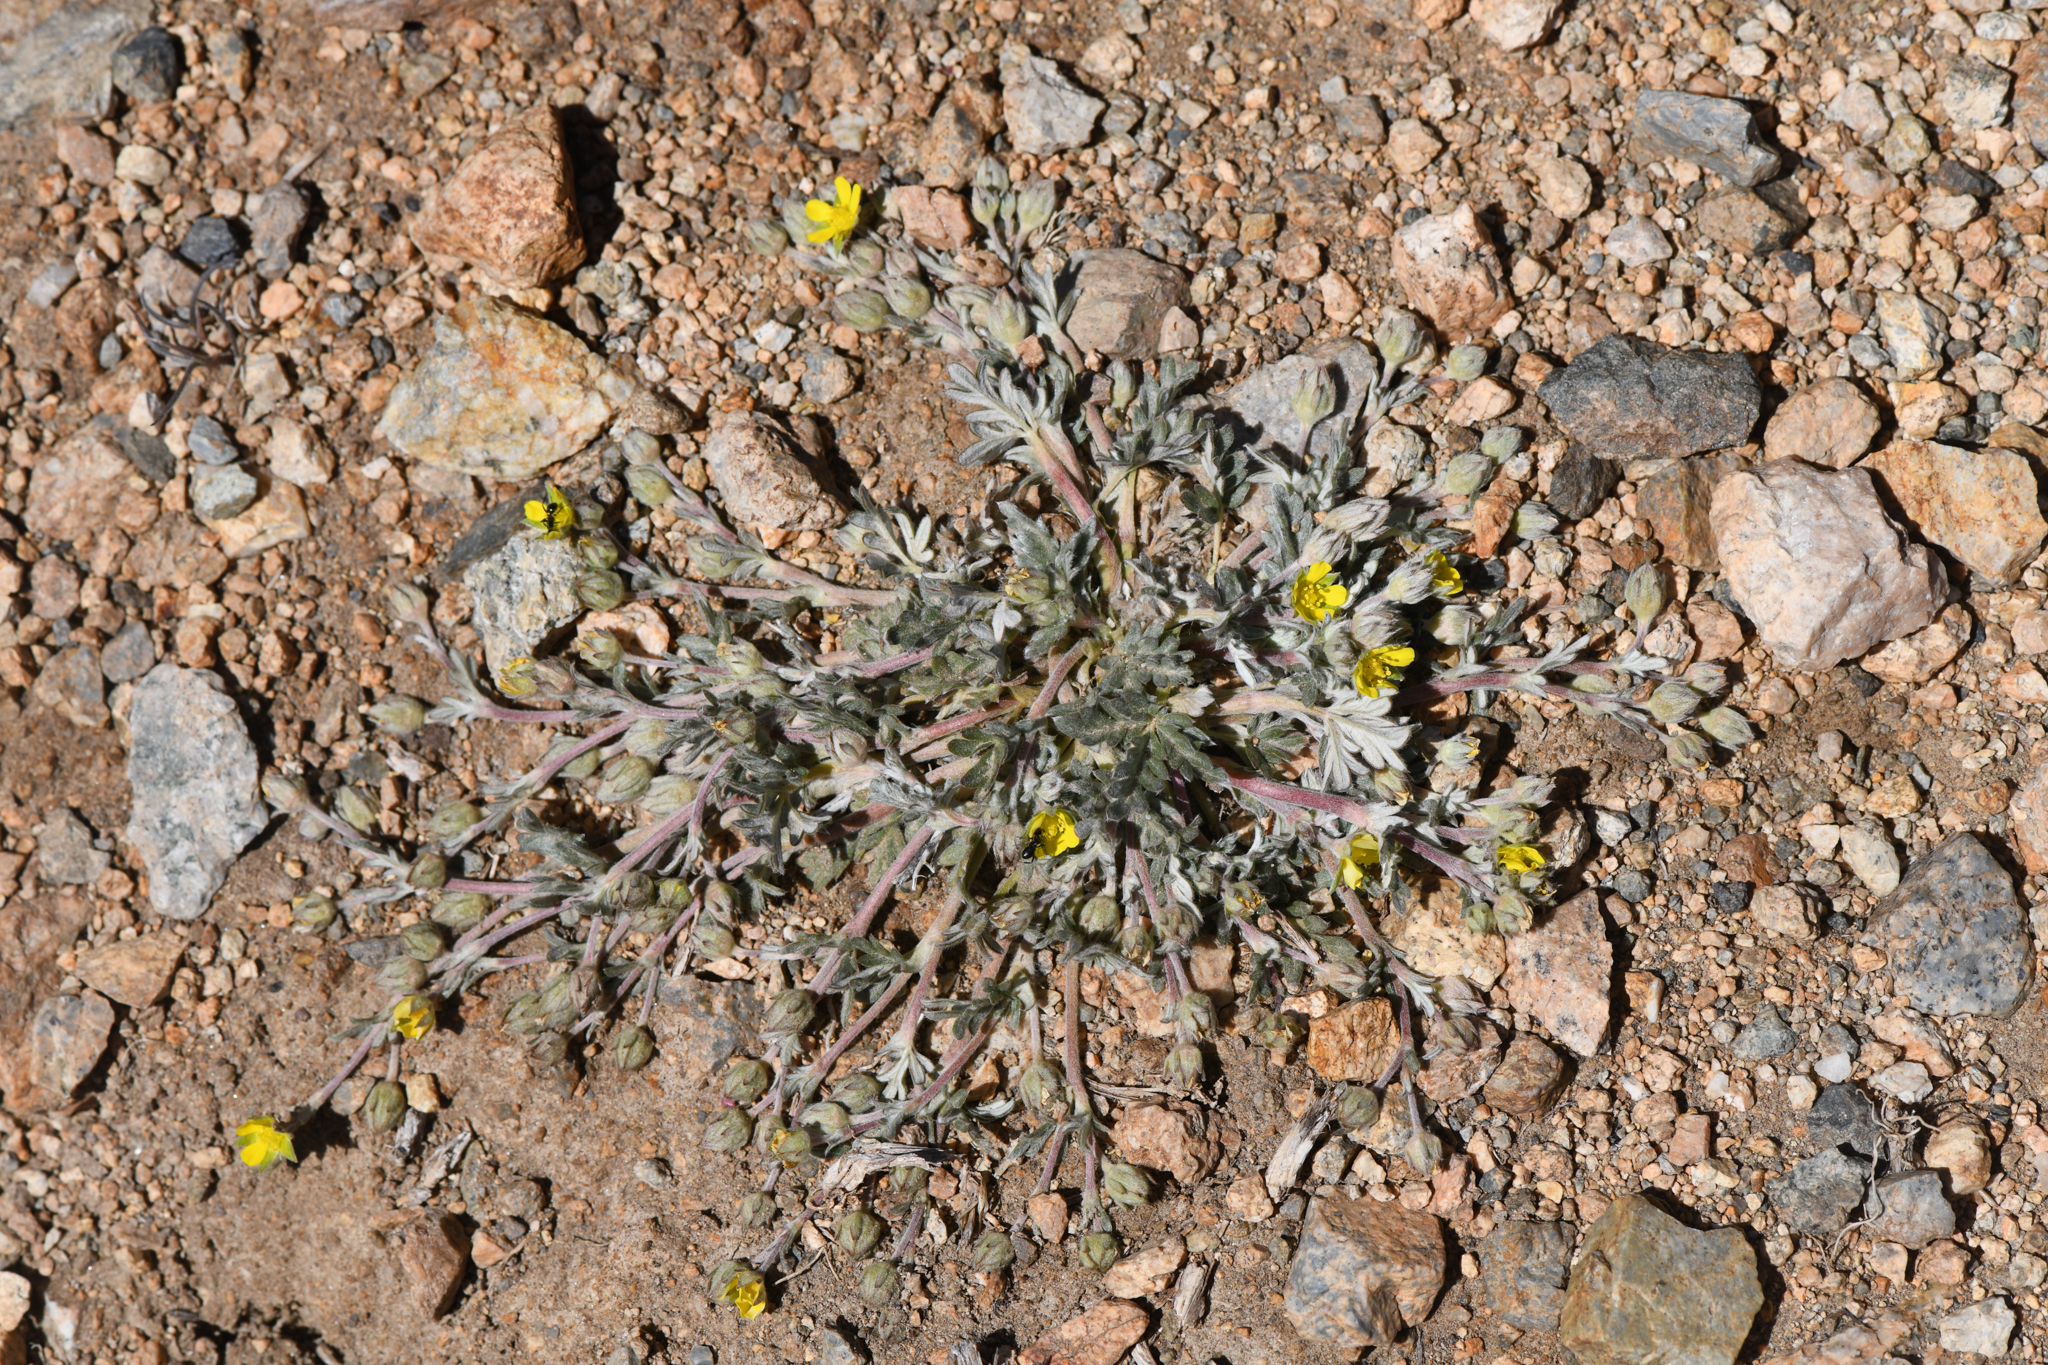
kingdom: Plantae
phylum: Tracheophyta
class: Magnoliopsida
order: Rosales
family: Rosaceae
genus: Potentilla
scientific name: Potentilla pseudosericea
